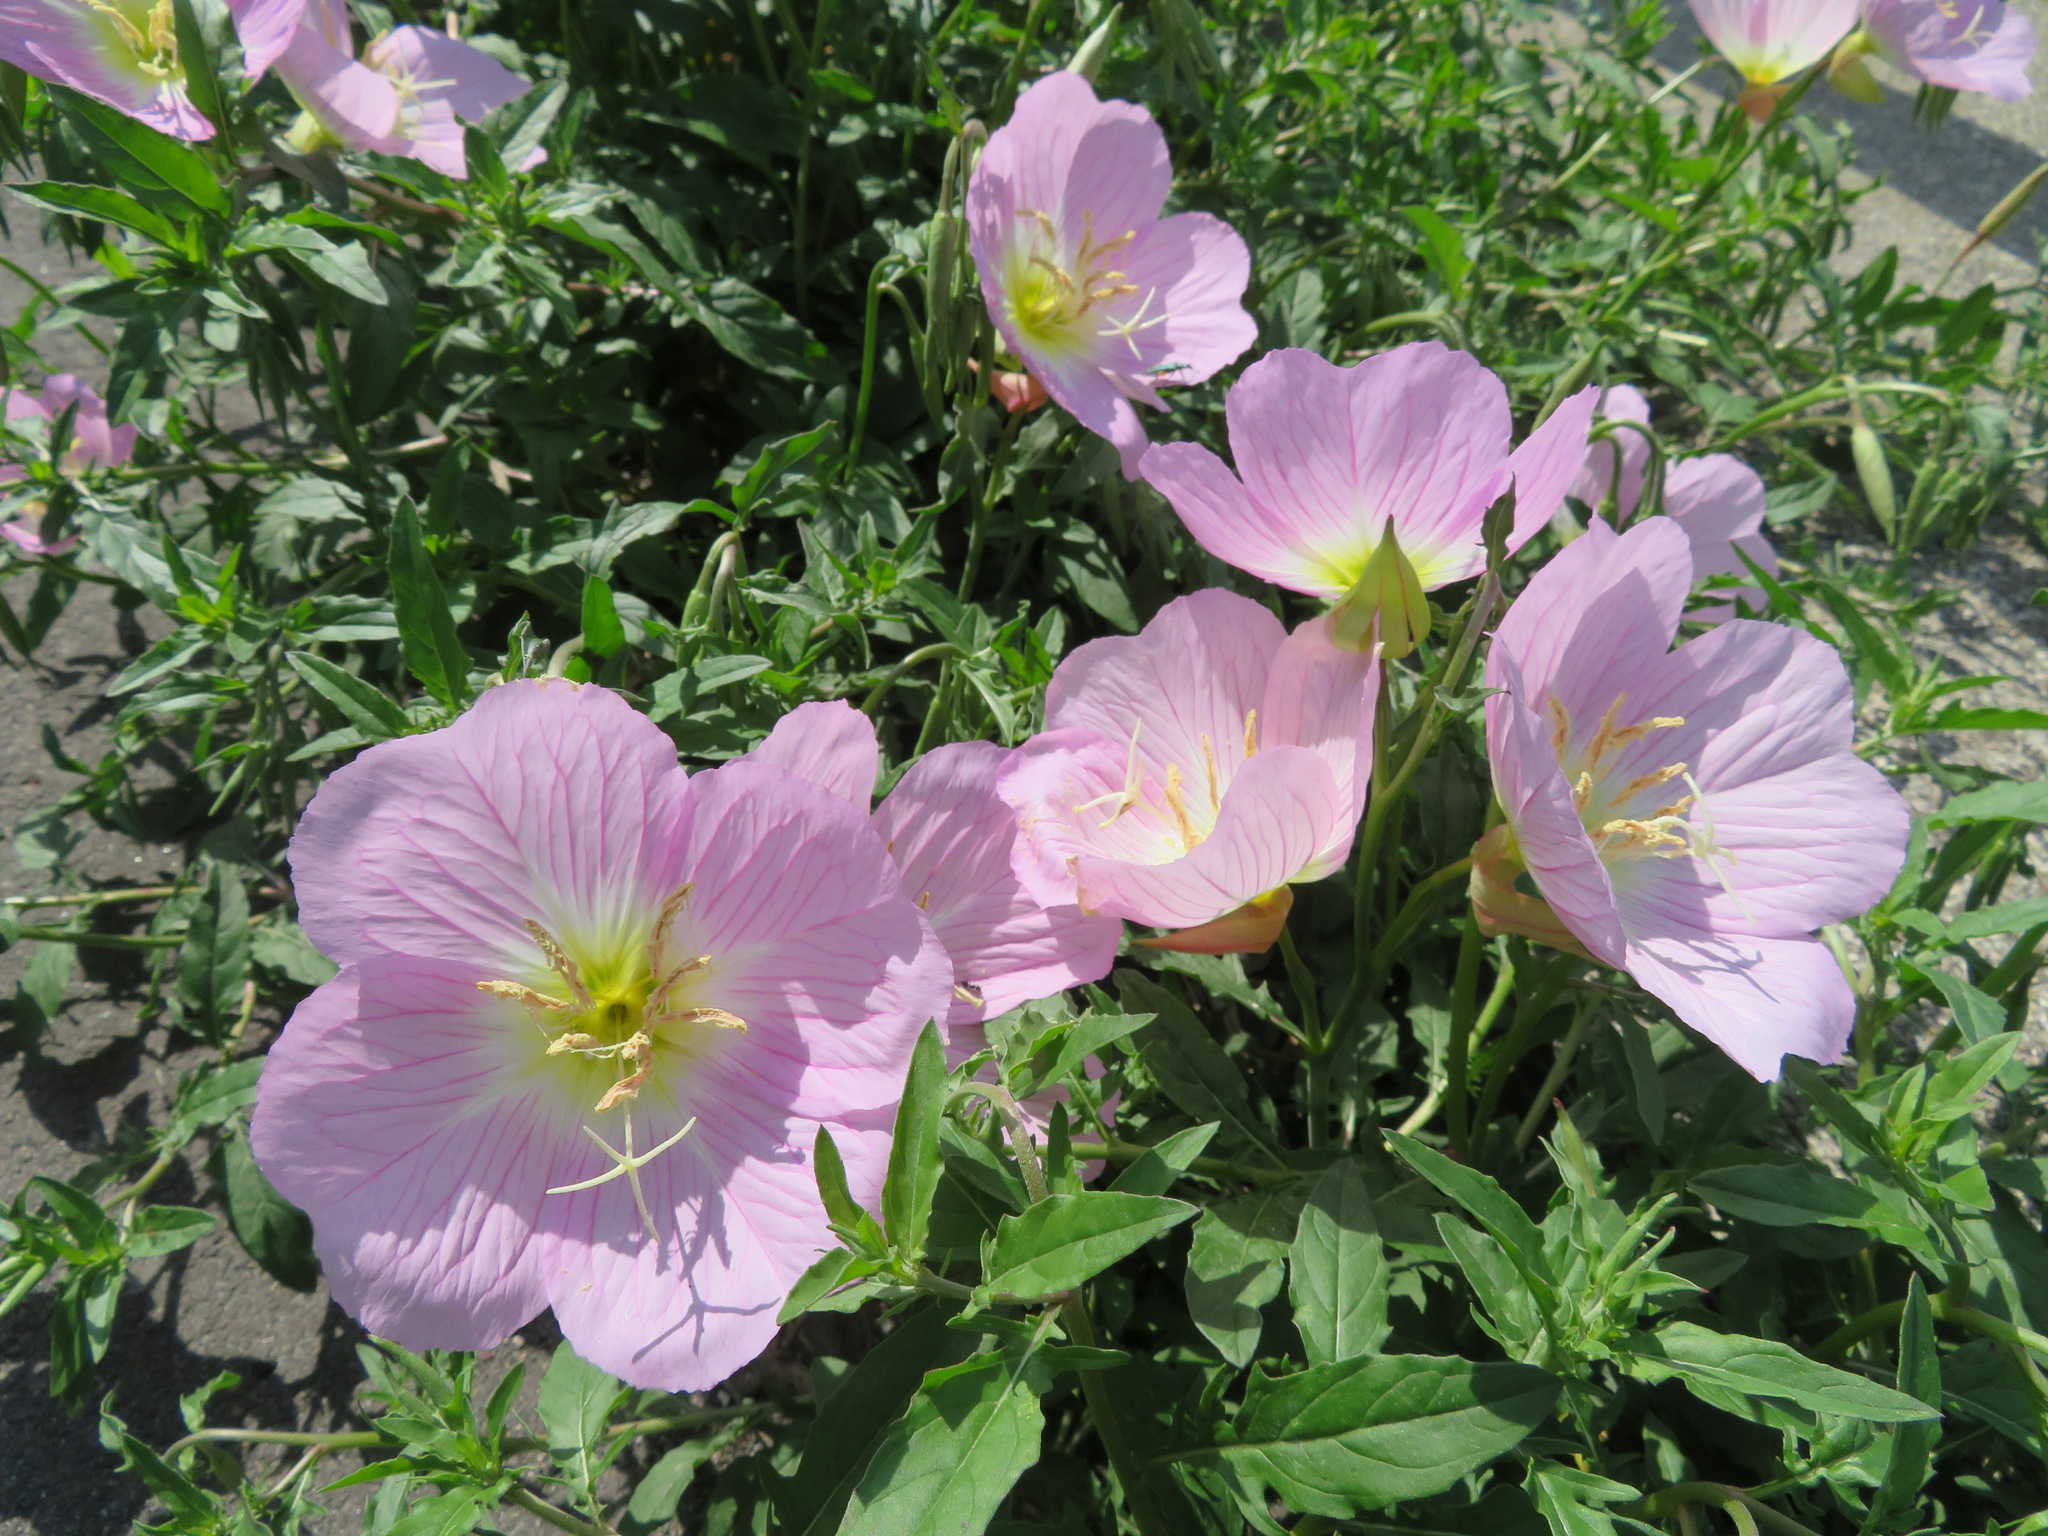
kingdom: Plantae
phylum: Tracheophyta
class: Magnoliopsida
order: Myrtales
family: Onagraceae
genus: Oenothera
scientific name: Oenothera speciosa
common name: White evening-primrose
